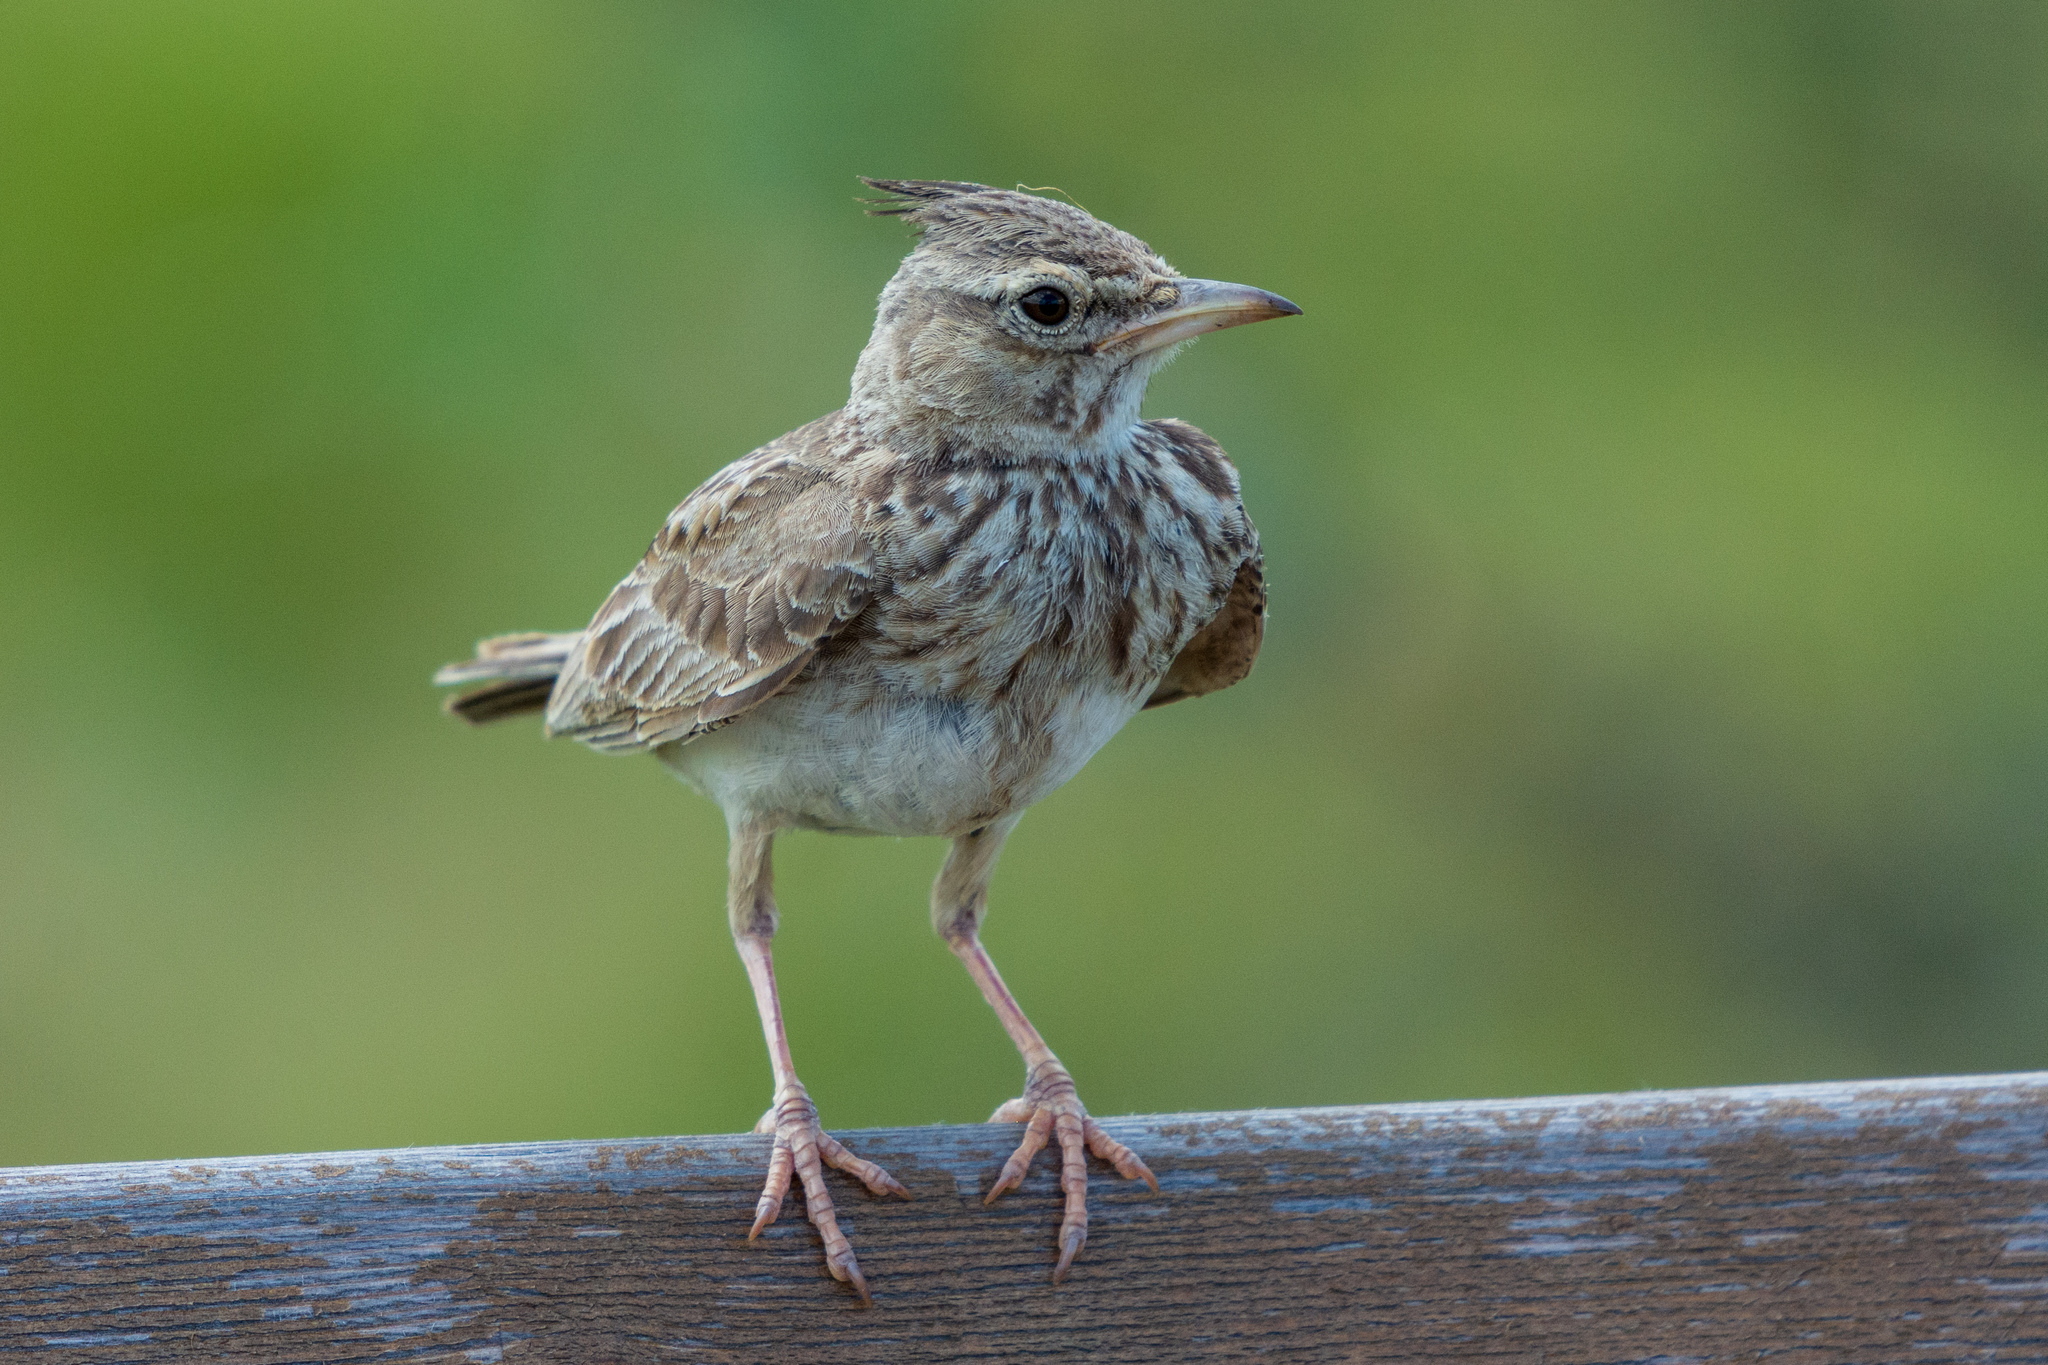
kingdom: Animalia
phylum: Chordata
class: Aves
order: Passeriformes
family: Alaudidae
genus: Galerida
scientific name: Galerida cristata
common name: Crested lark
